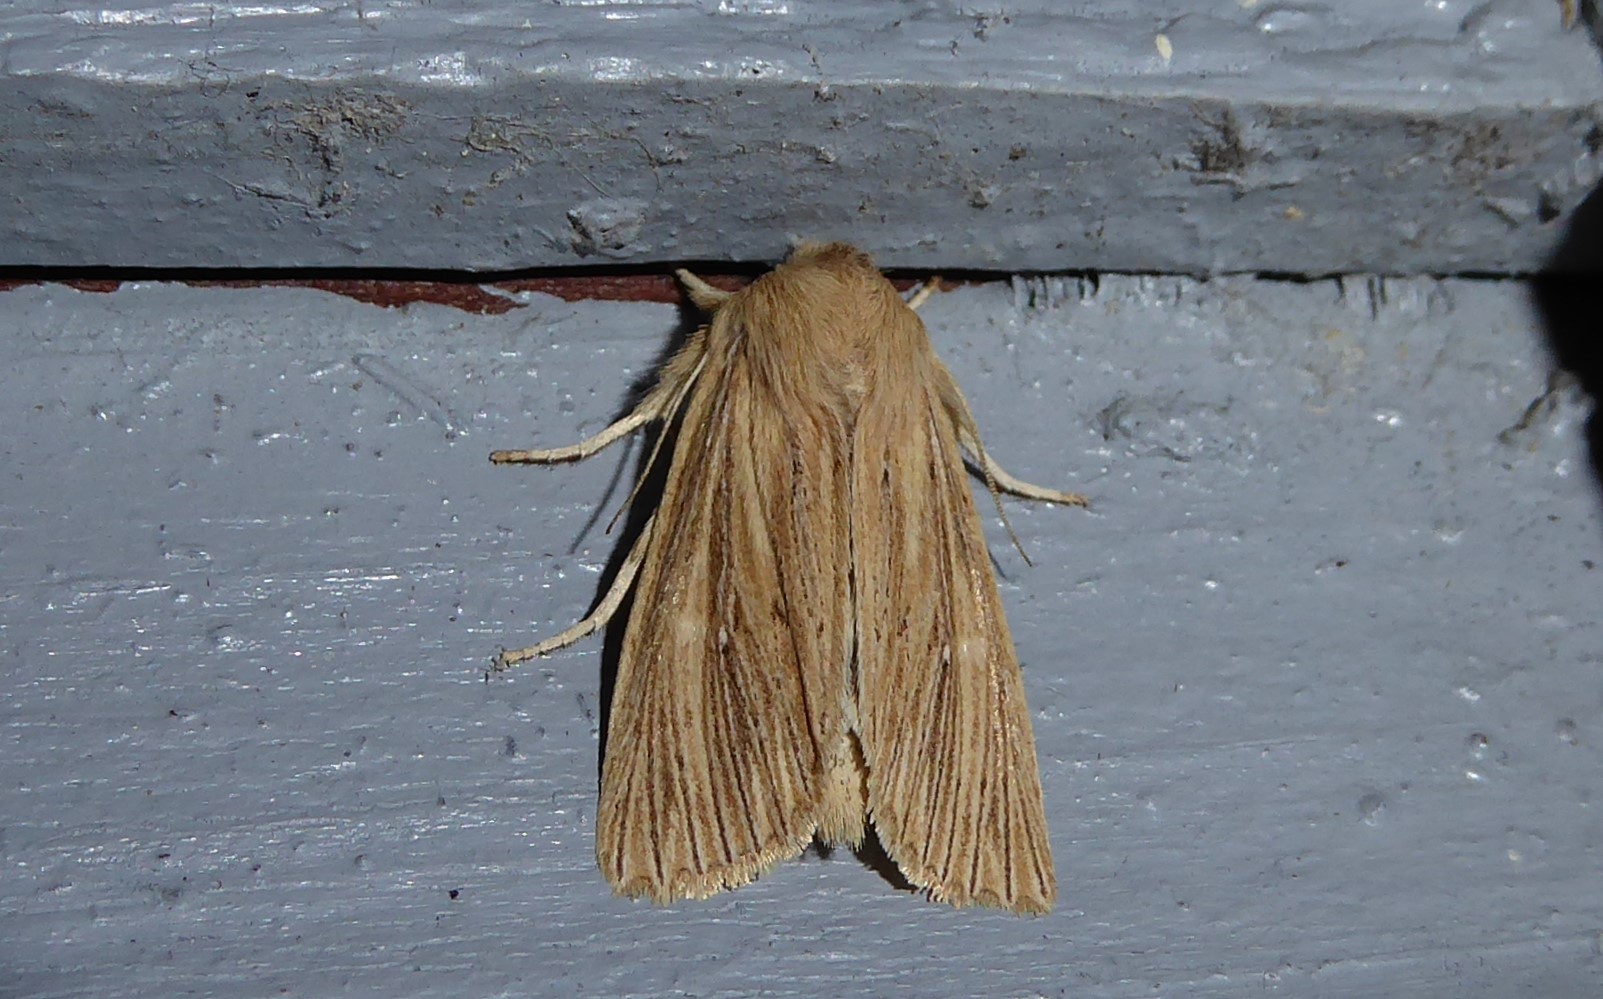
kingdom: Animalia
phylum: Arthropoda
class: Insecta
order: Lepidoptera
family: Noctuidae
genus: Ichneutica
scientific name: Ichneutica arotis
